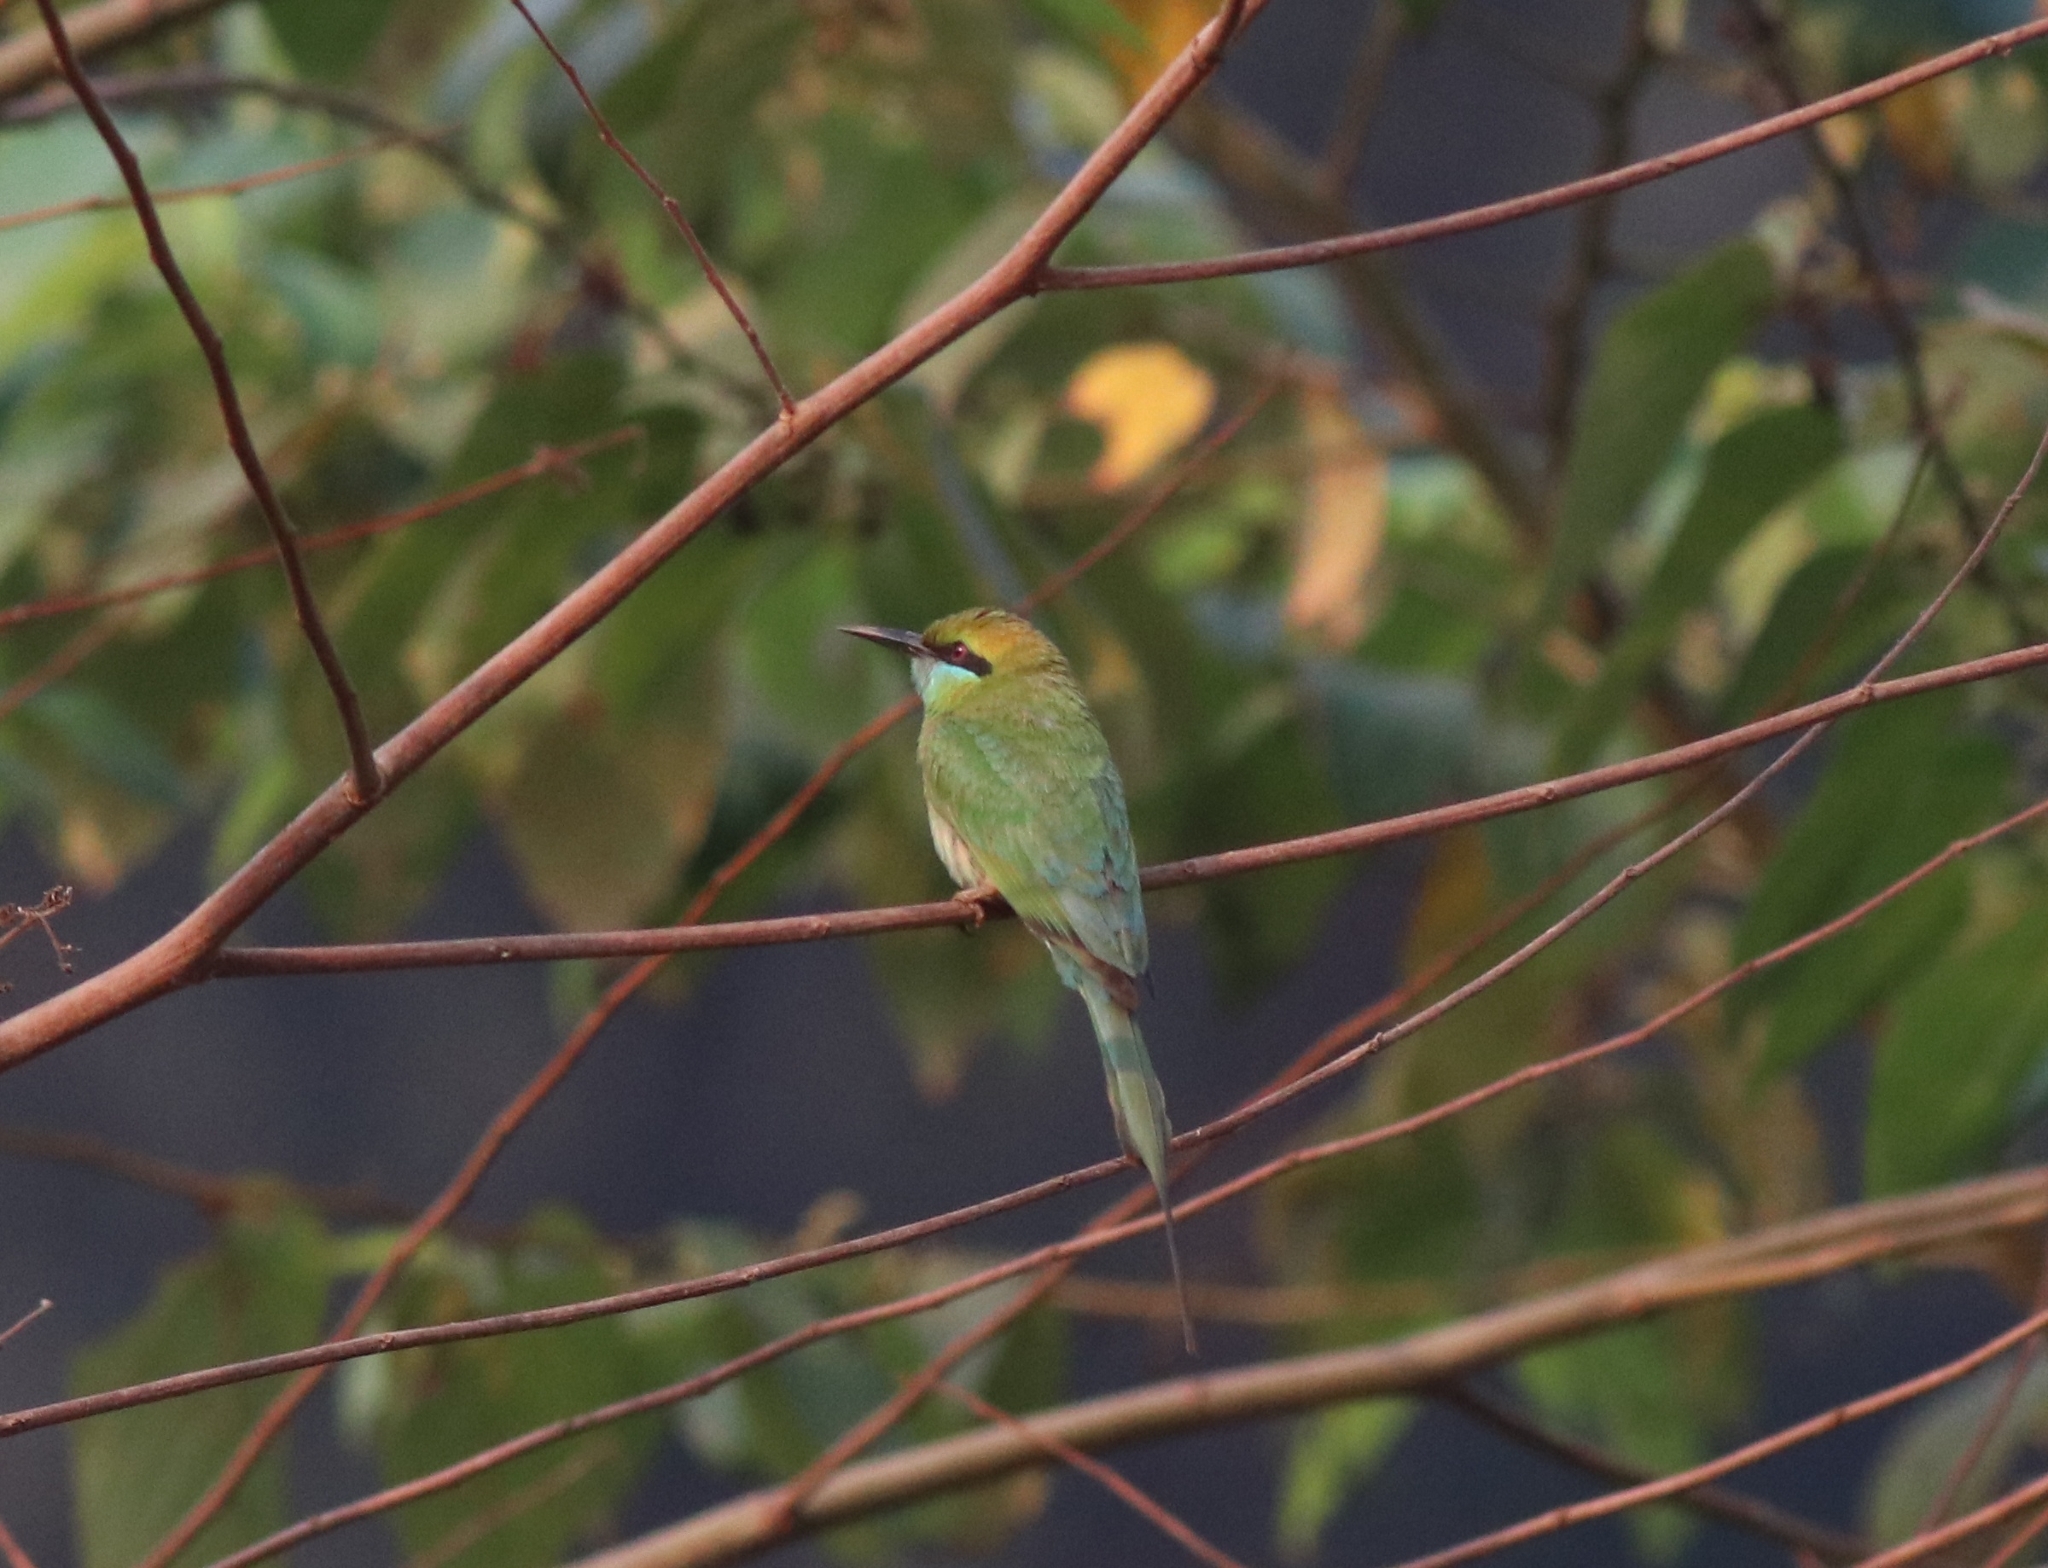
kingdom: Animalia
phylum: Chordata
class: Aves
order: Coraciiformes
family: Meropidae
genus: Merops
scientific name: Merops orientalis
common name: Green bee-eater
